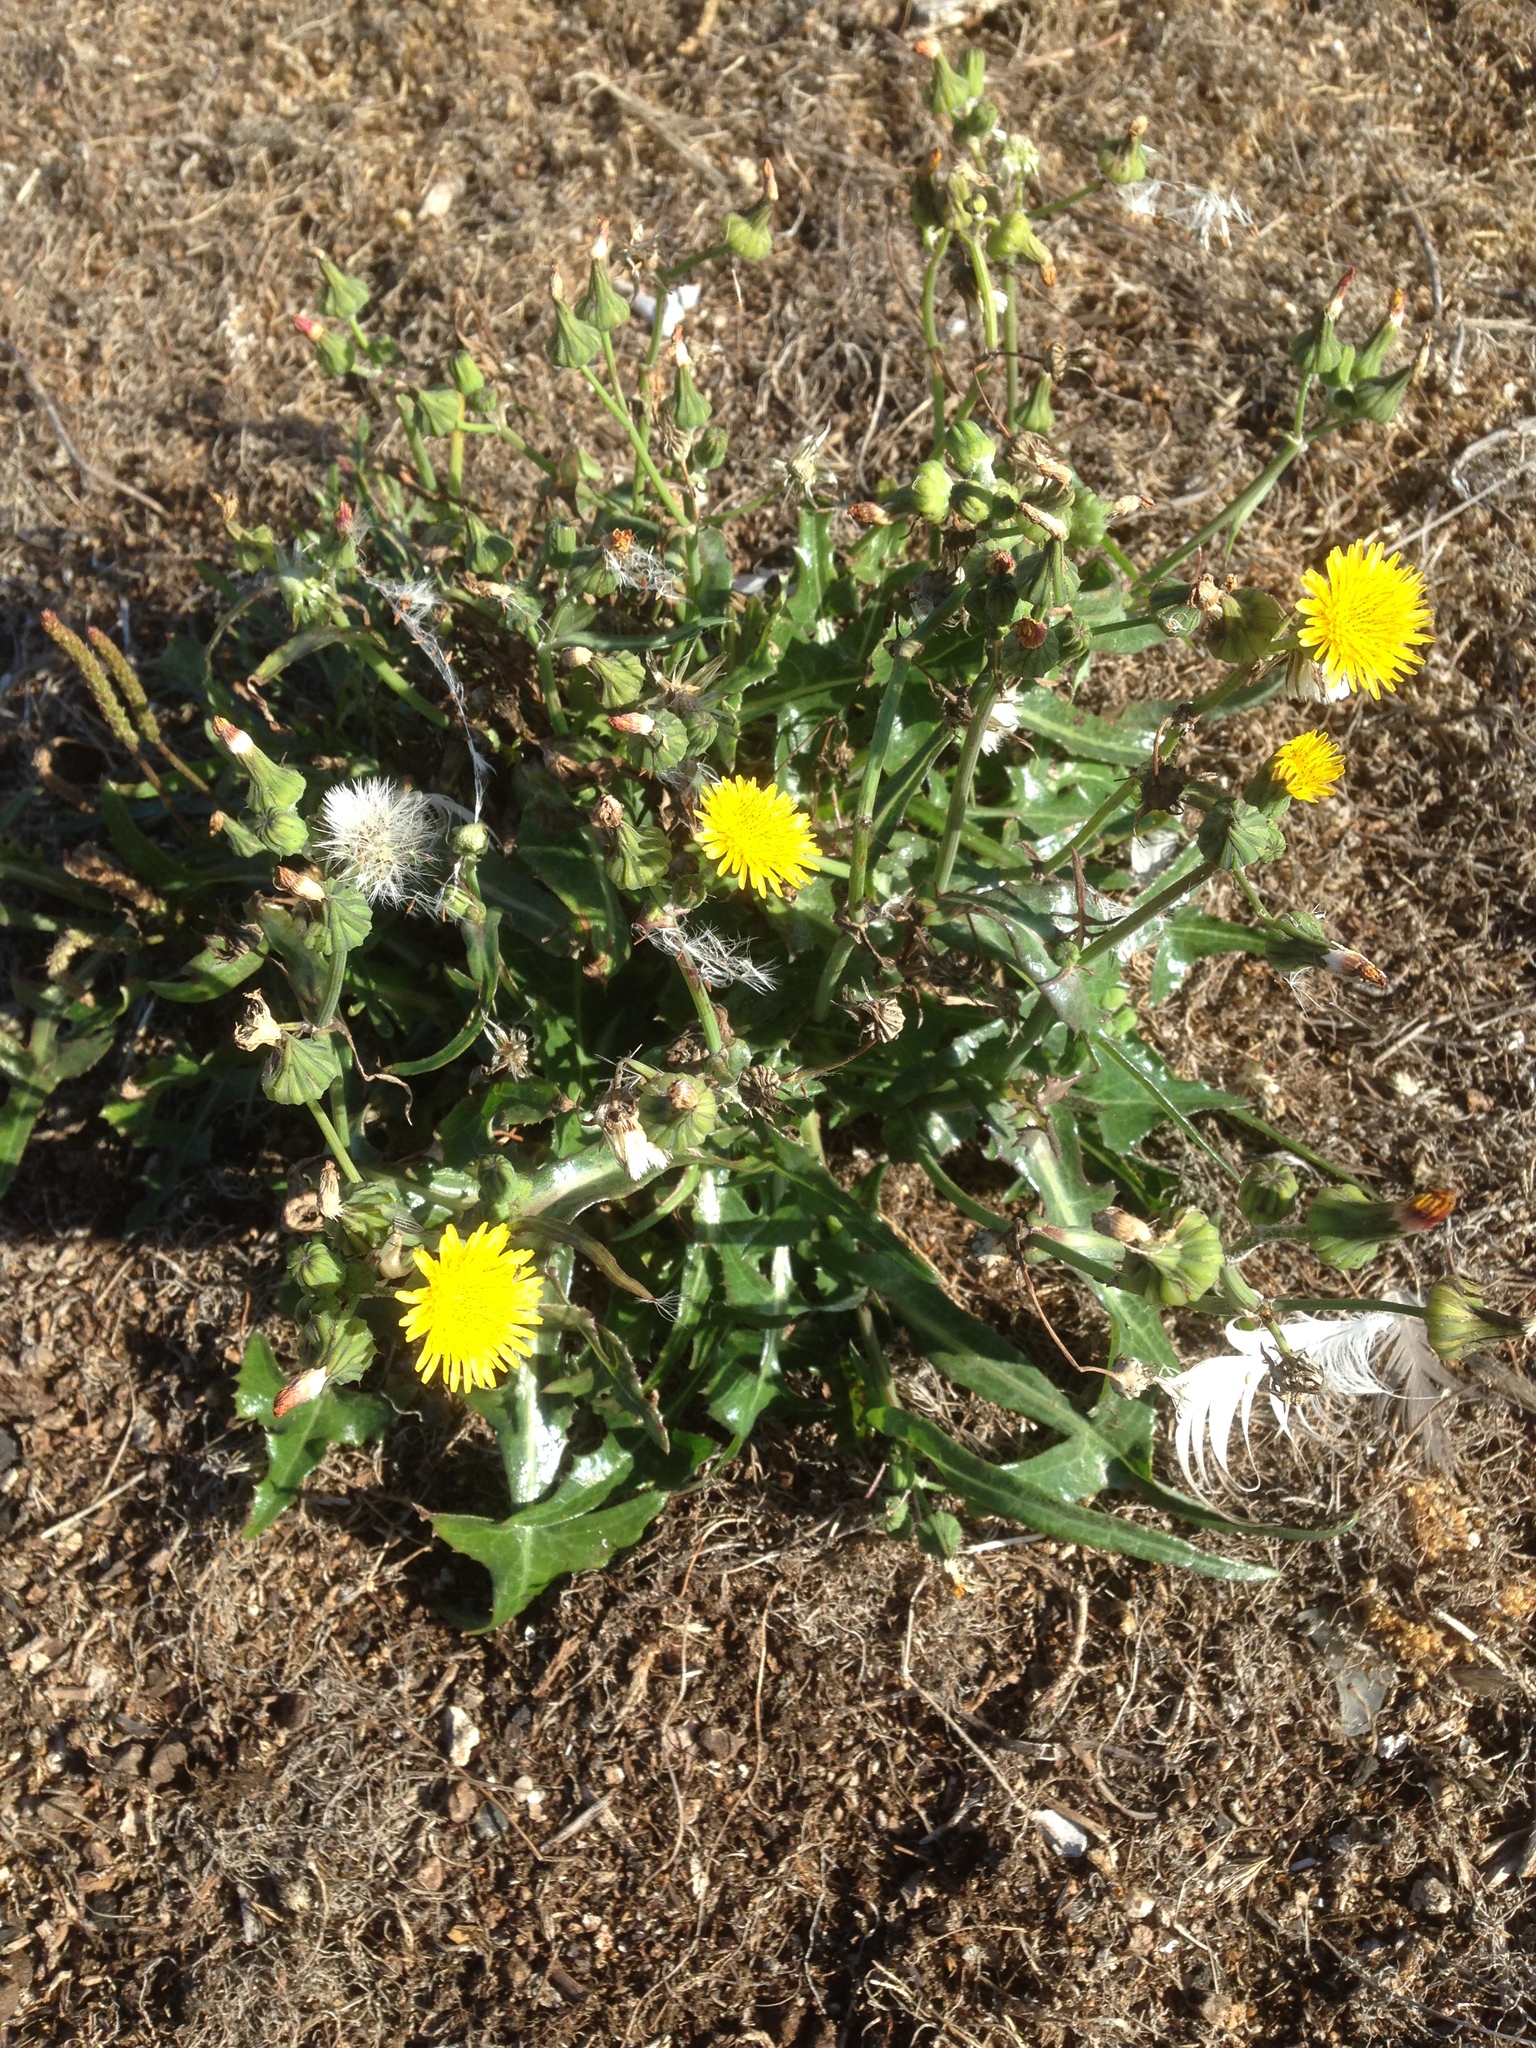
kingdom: Plantae
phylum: Tracheophyta
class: Magnoliopsida
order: Asterales
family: Asteraceae
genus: Sonchus
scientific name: Sonchus oleraceus
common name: Common sowthistle
